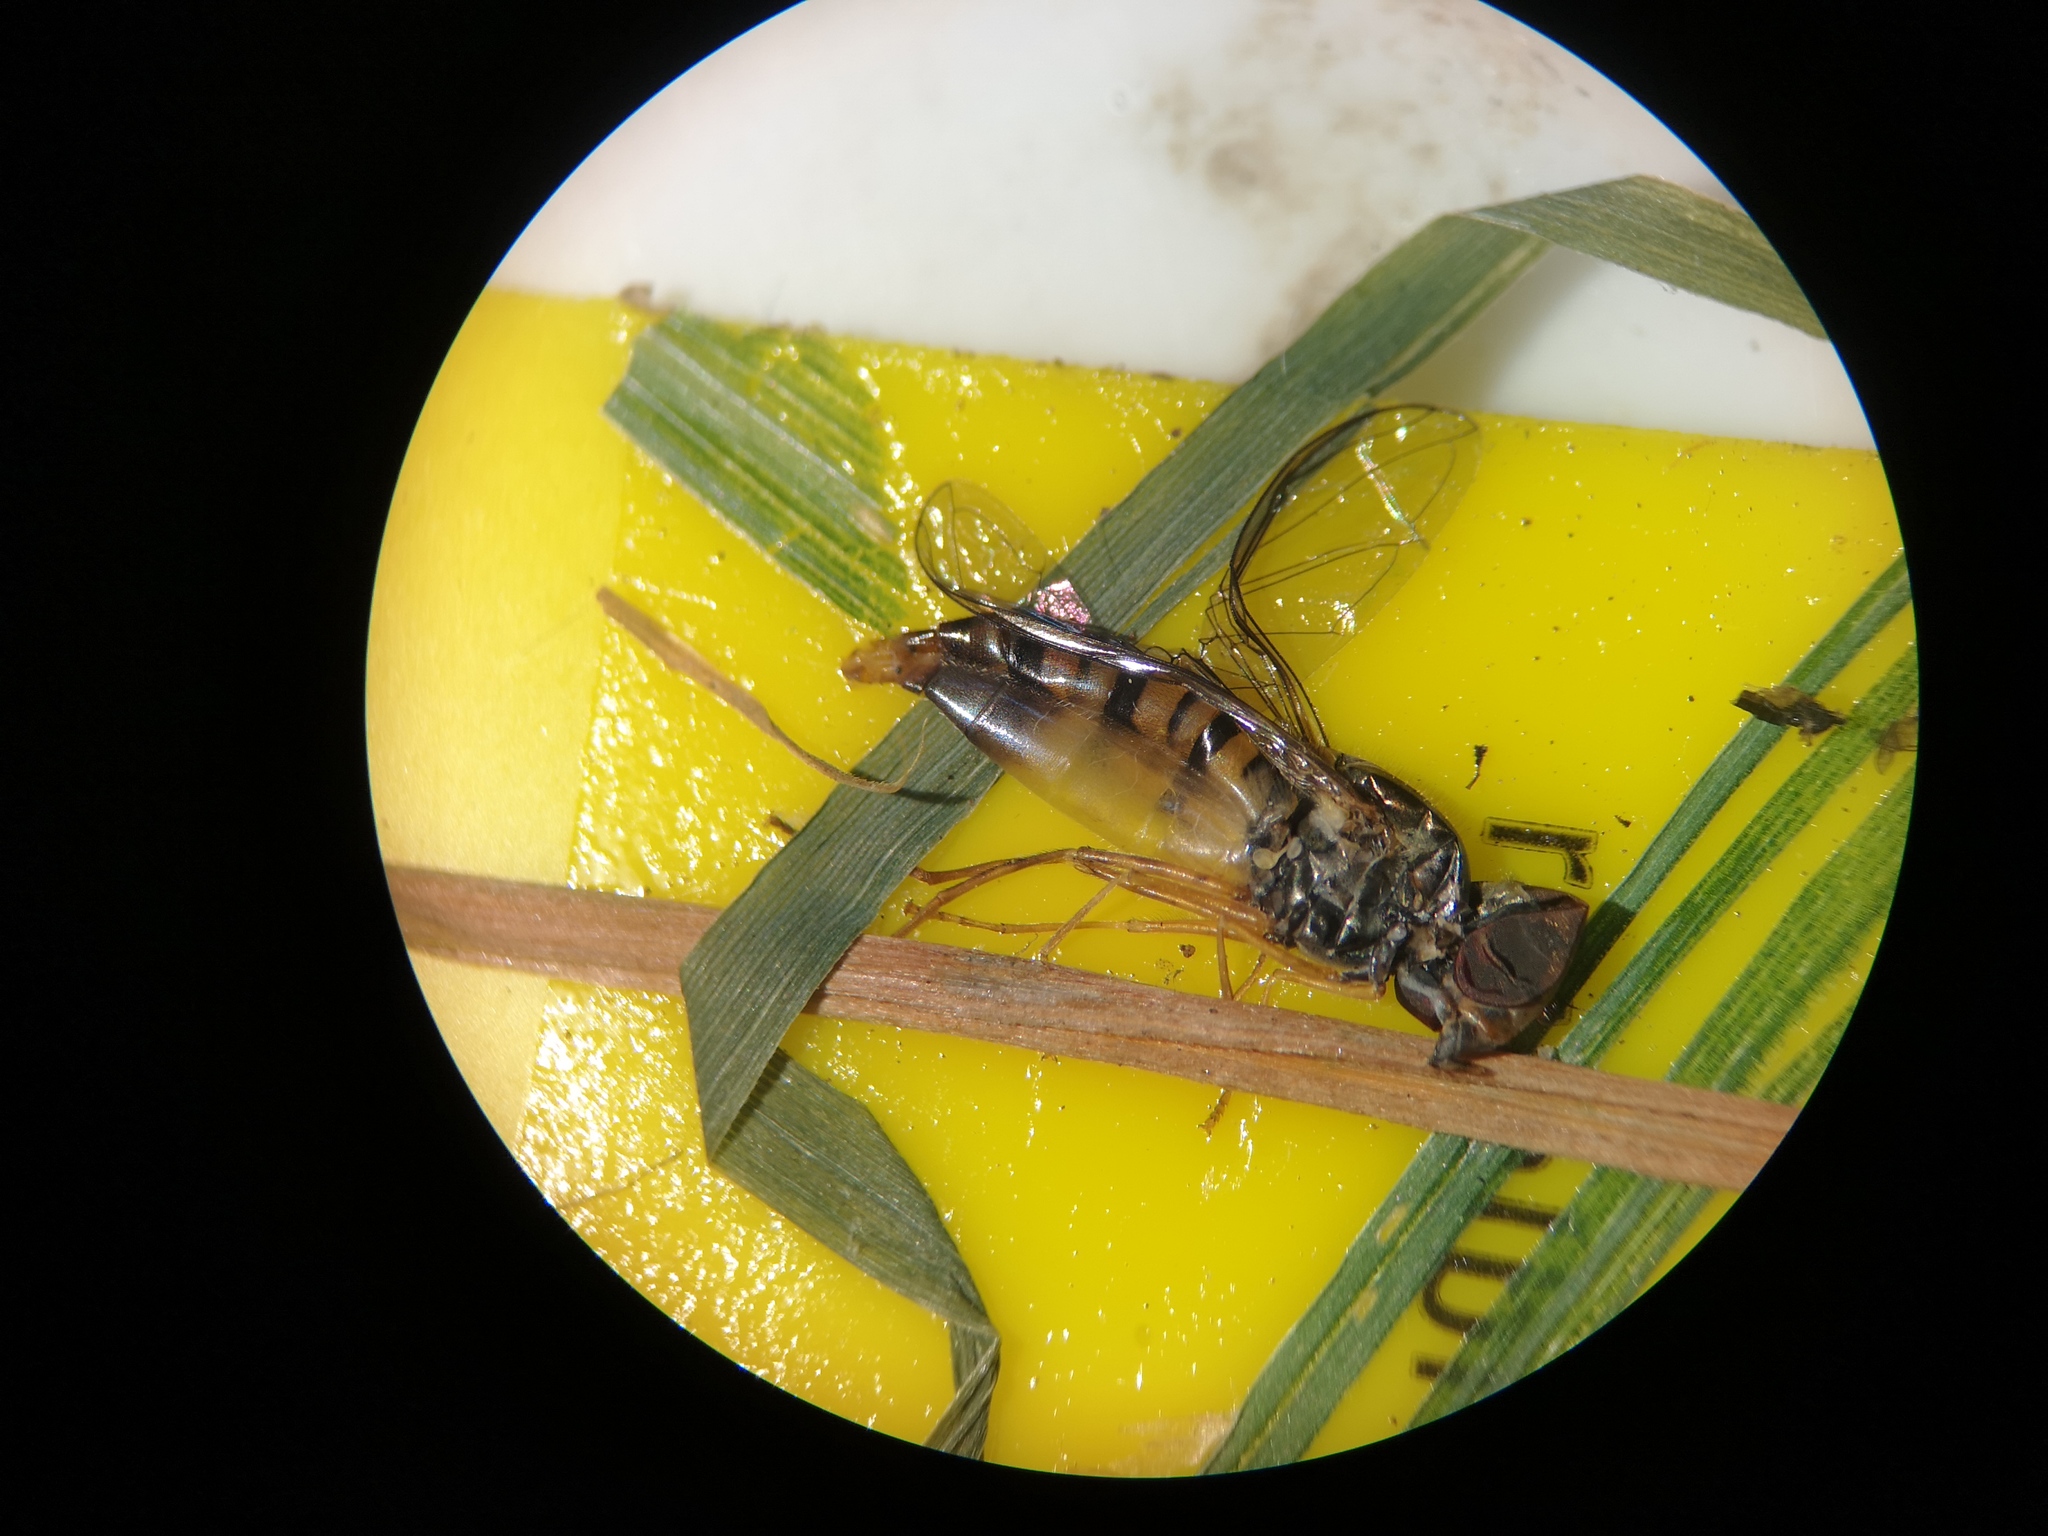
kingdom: Animalia
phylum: Arthropoda
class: Insecta
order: Diptera
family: Syrphidae
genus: Episyrphus
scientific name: Episyrphus balteatus
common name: Marmalade hoverfly
